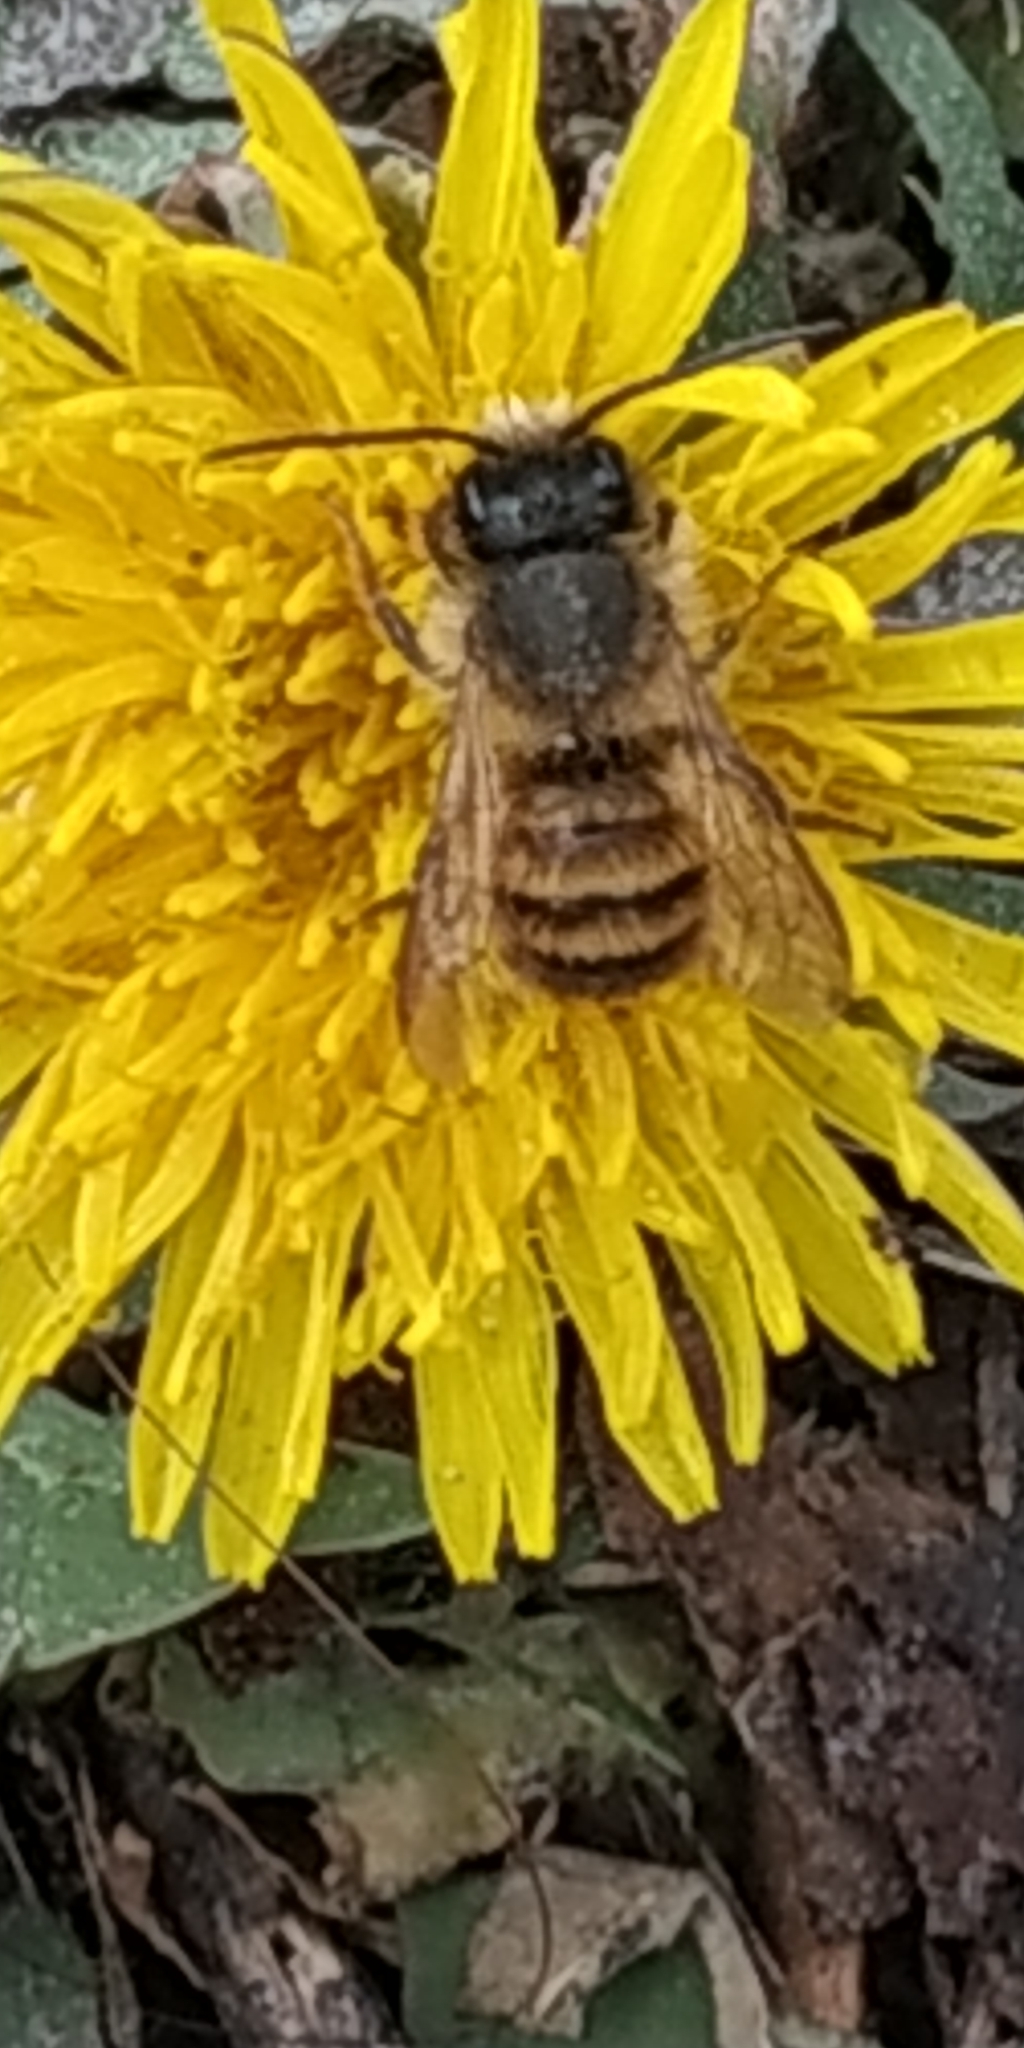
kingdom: Animalia
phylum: Arthropoda
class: Insecta
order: Hymenoptera
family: Megachilidae
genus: Osmia
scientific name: Osmia bicornis
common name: Red mason bee
